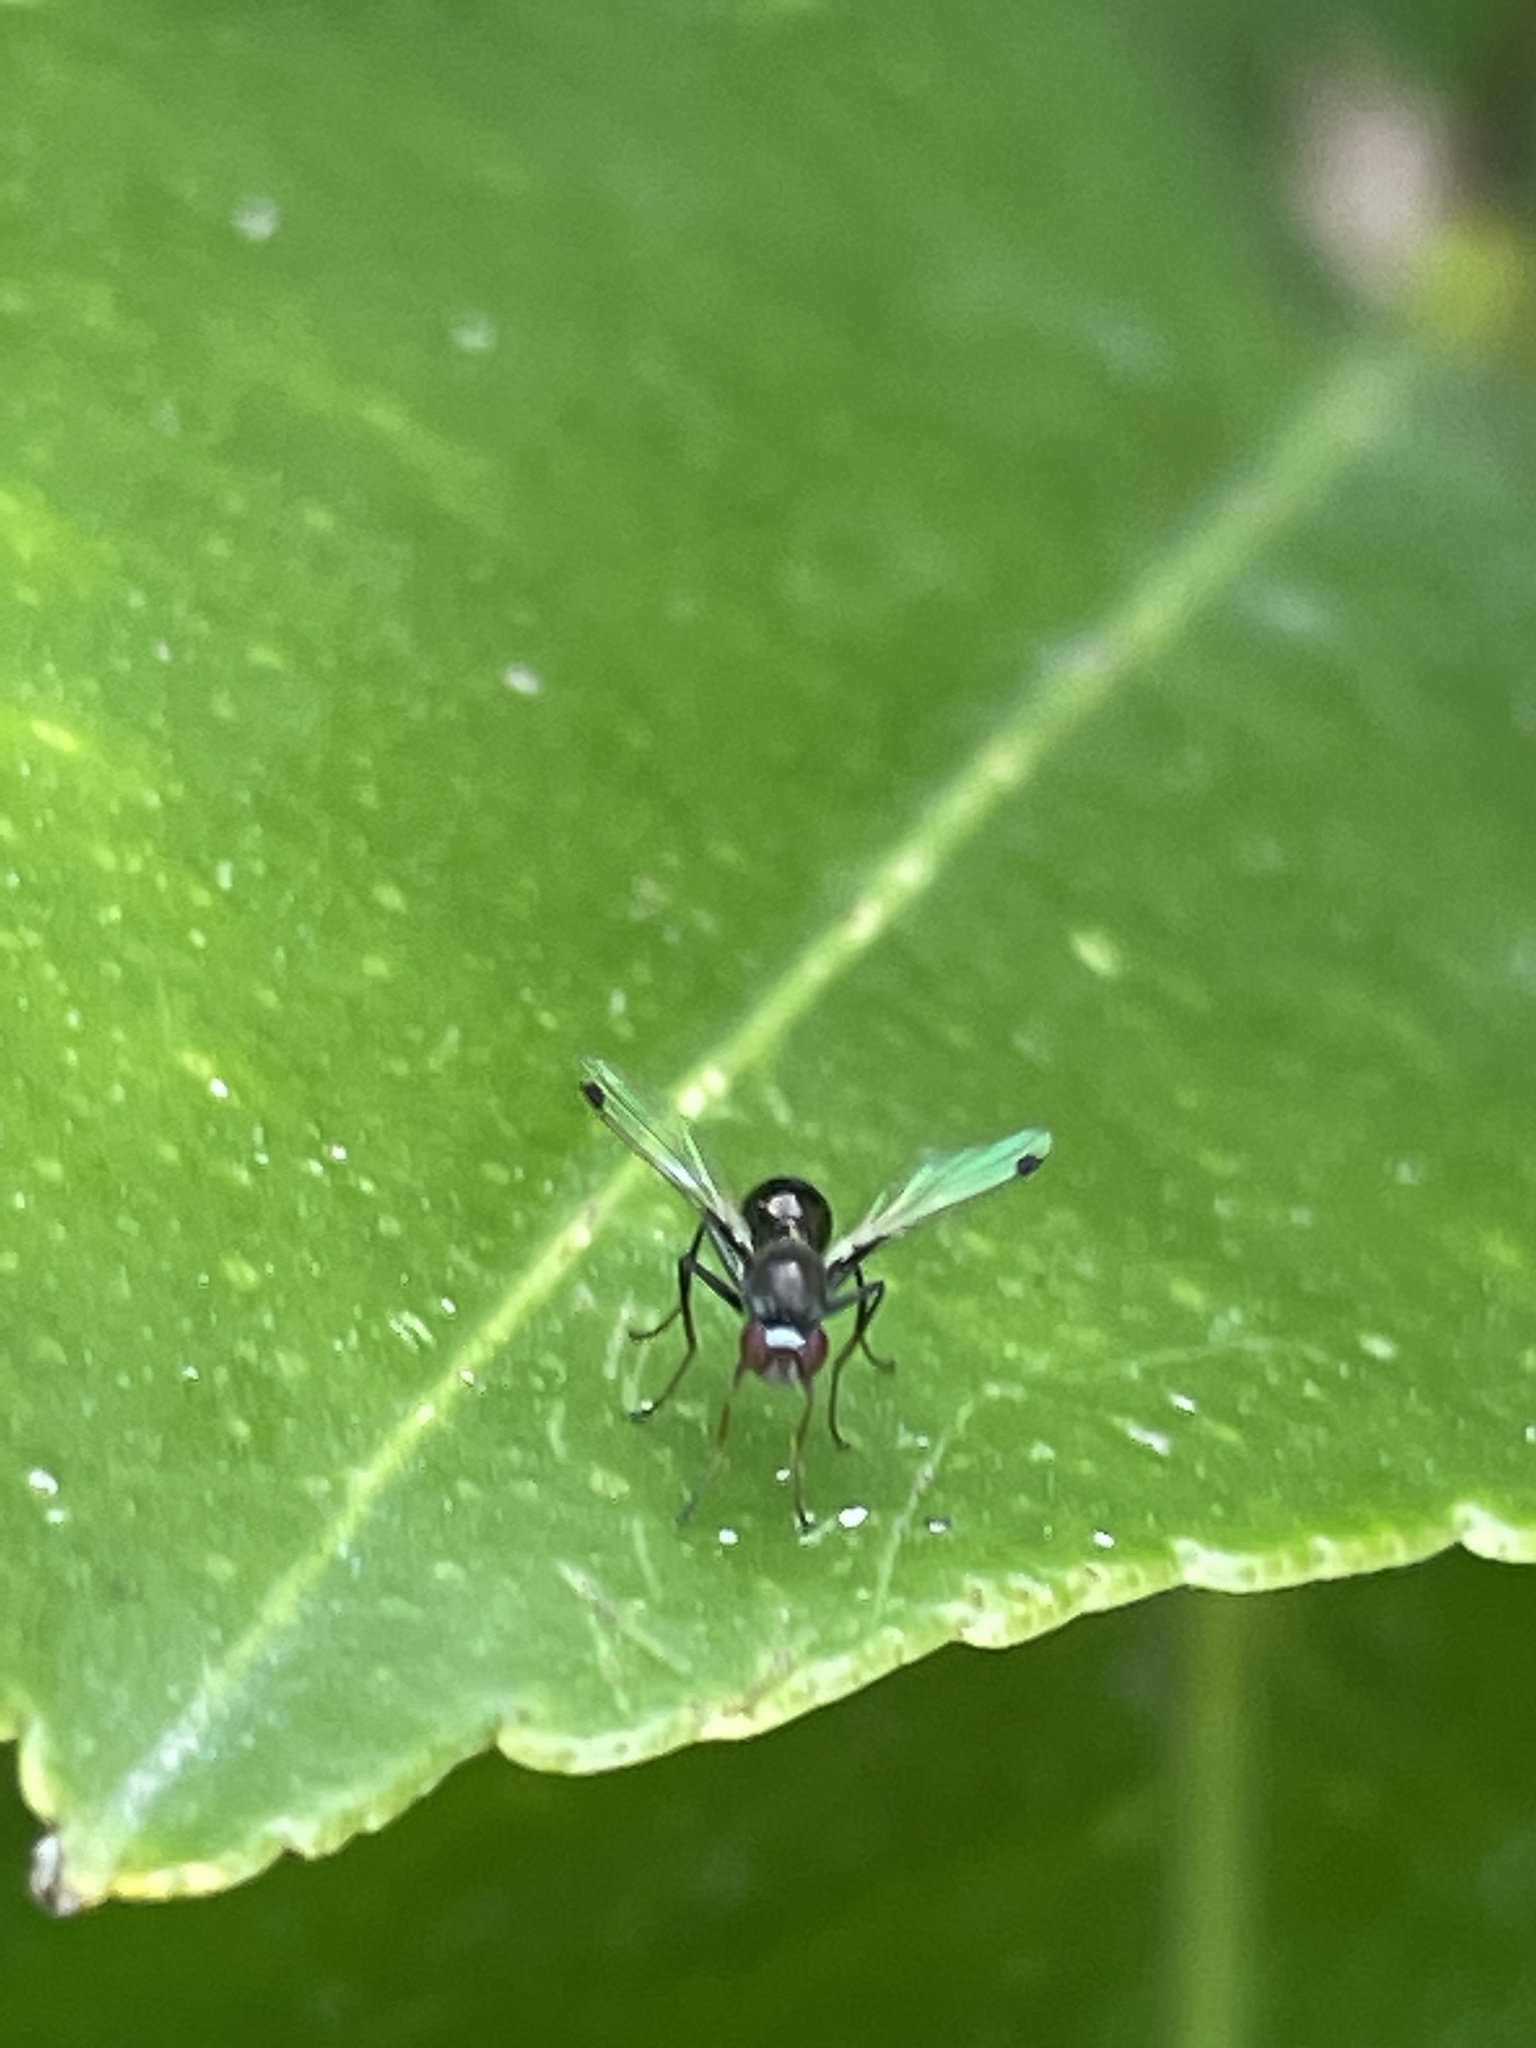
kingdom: Animalia
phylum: Arthropoda
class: Insecta
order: Diptera
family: Sepsidae
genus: Parapalaeosepsis
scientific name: Parapalaeosepsis plebeia
